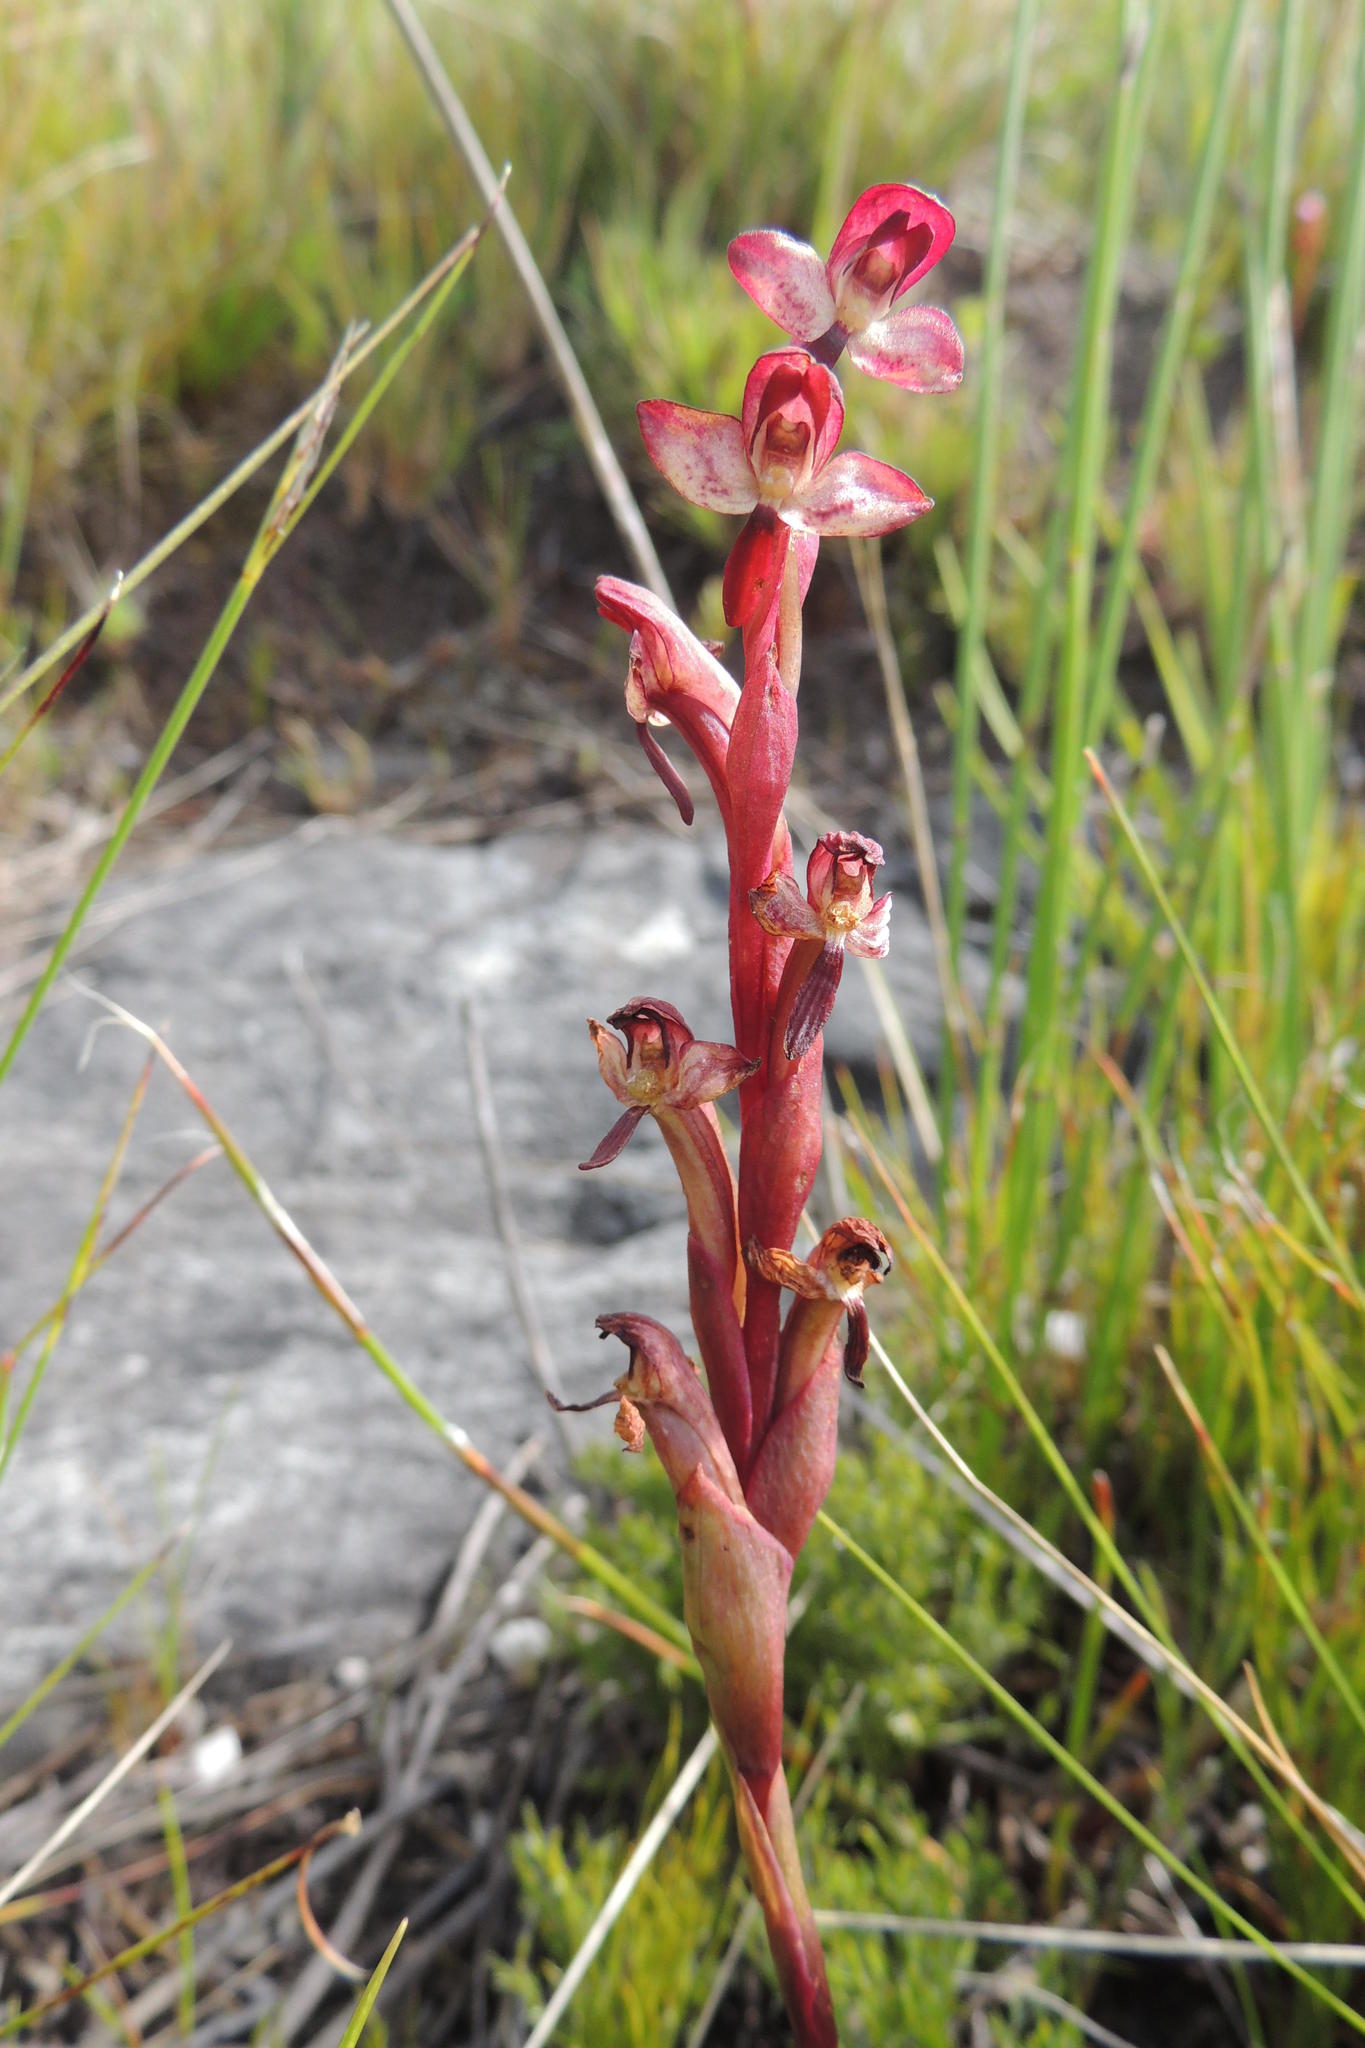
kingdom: Plantae
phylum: Tracheophyta
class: Liliopsida
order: Asparagales
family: Orchidaceae
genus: Disa
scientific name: Disa ophrydea
